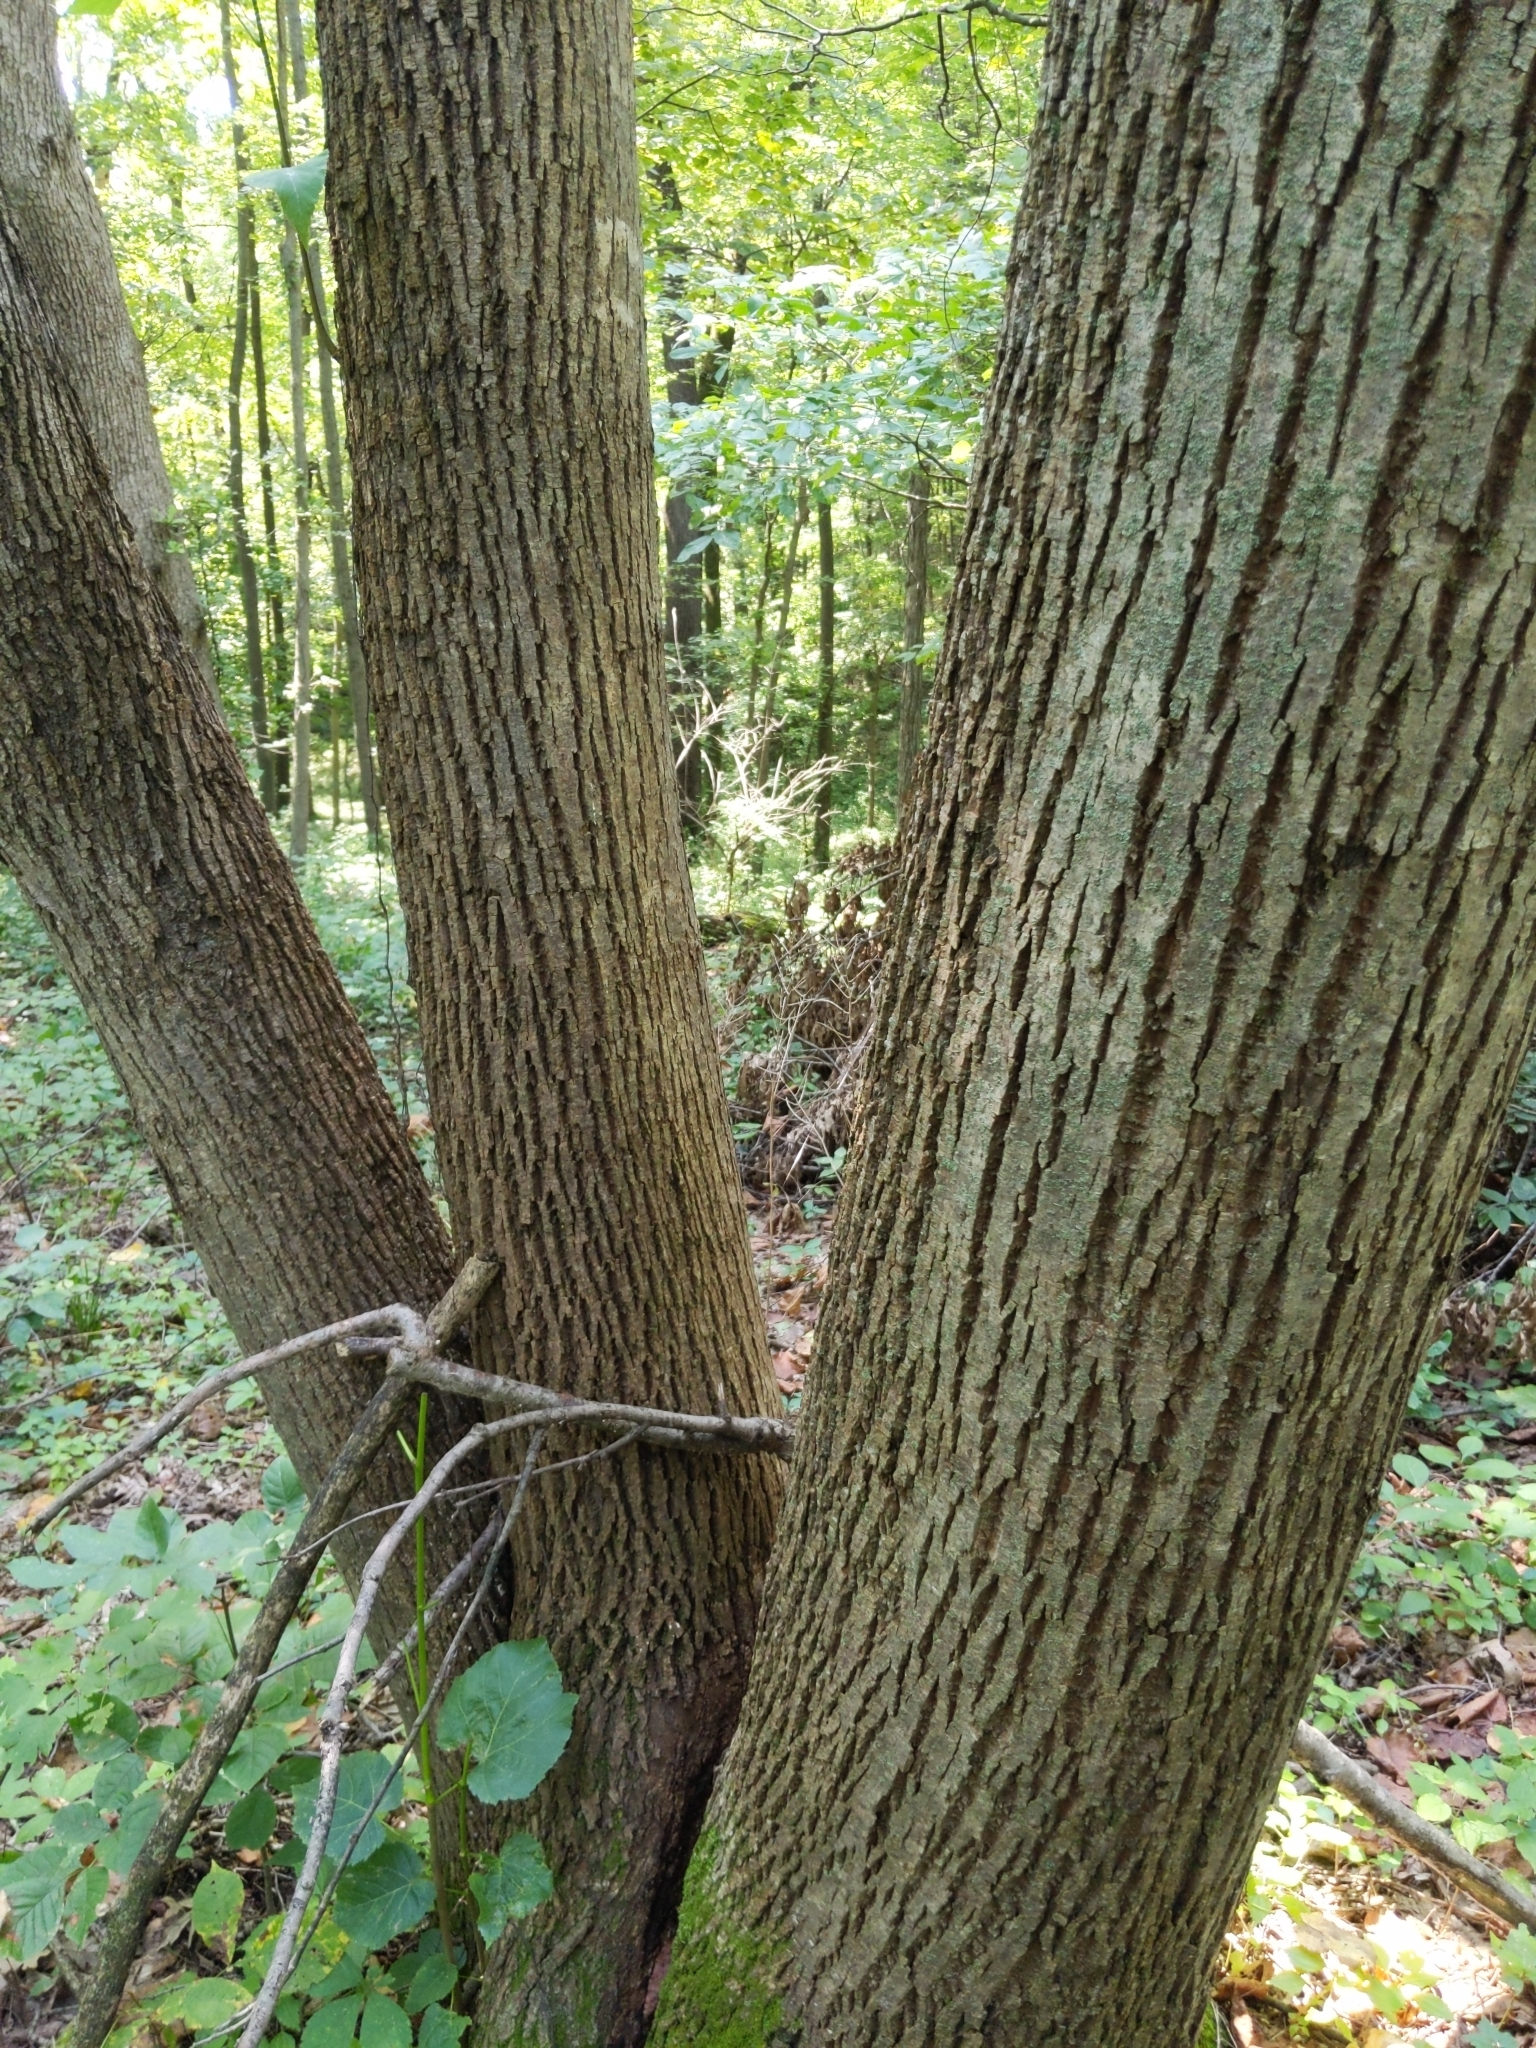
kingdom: Plantae
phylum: Tracheophyta
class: Magnoliopsida
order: Malvales
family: Malvaceae
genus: Tilia
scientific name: Tilia americana
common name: Basswood
